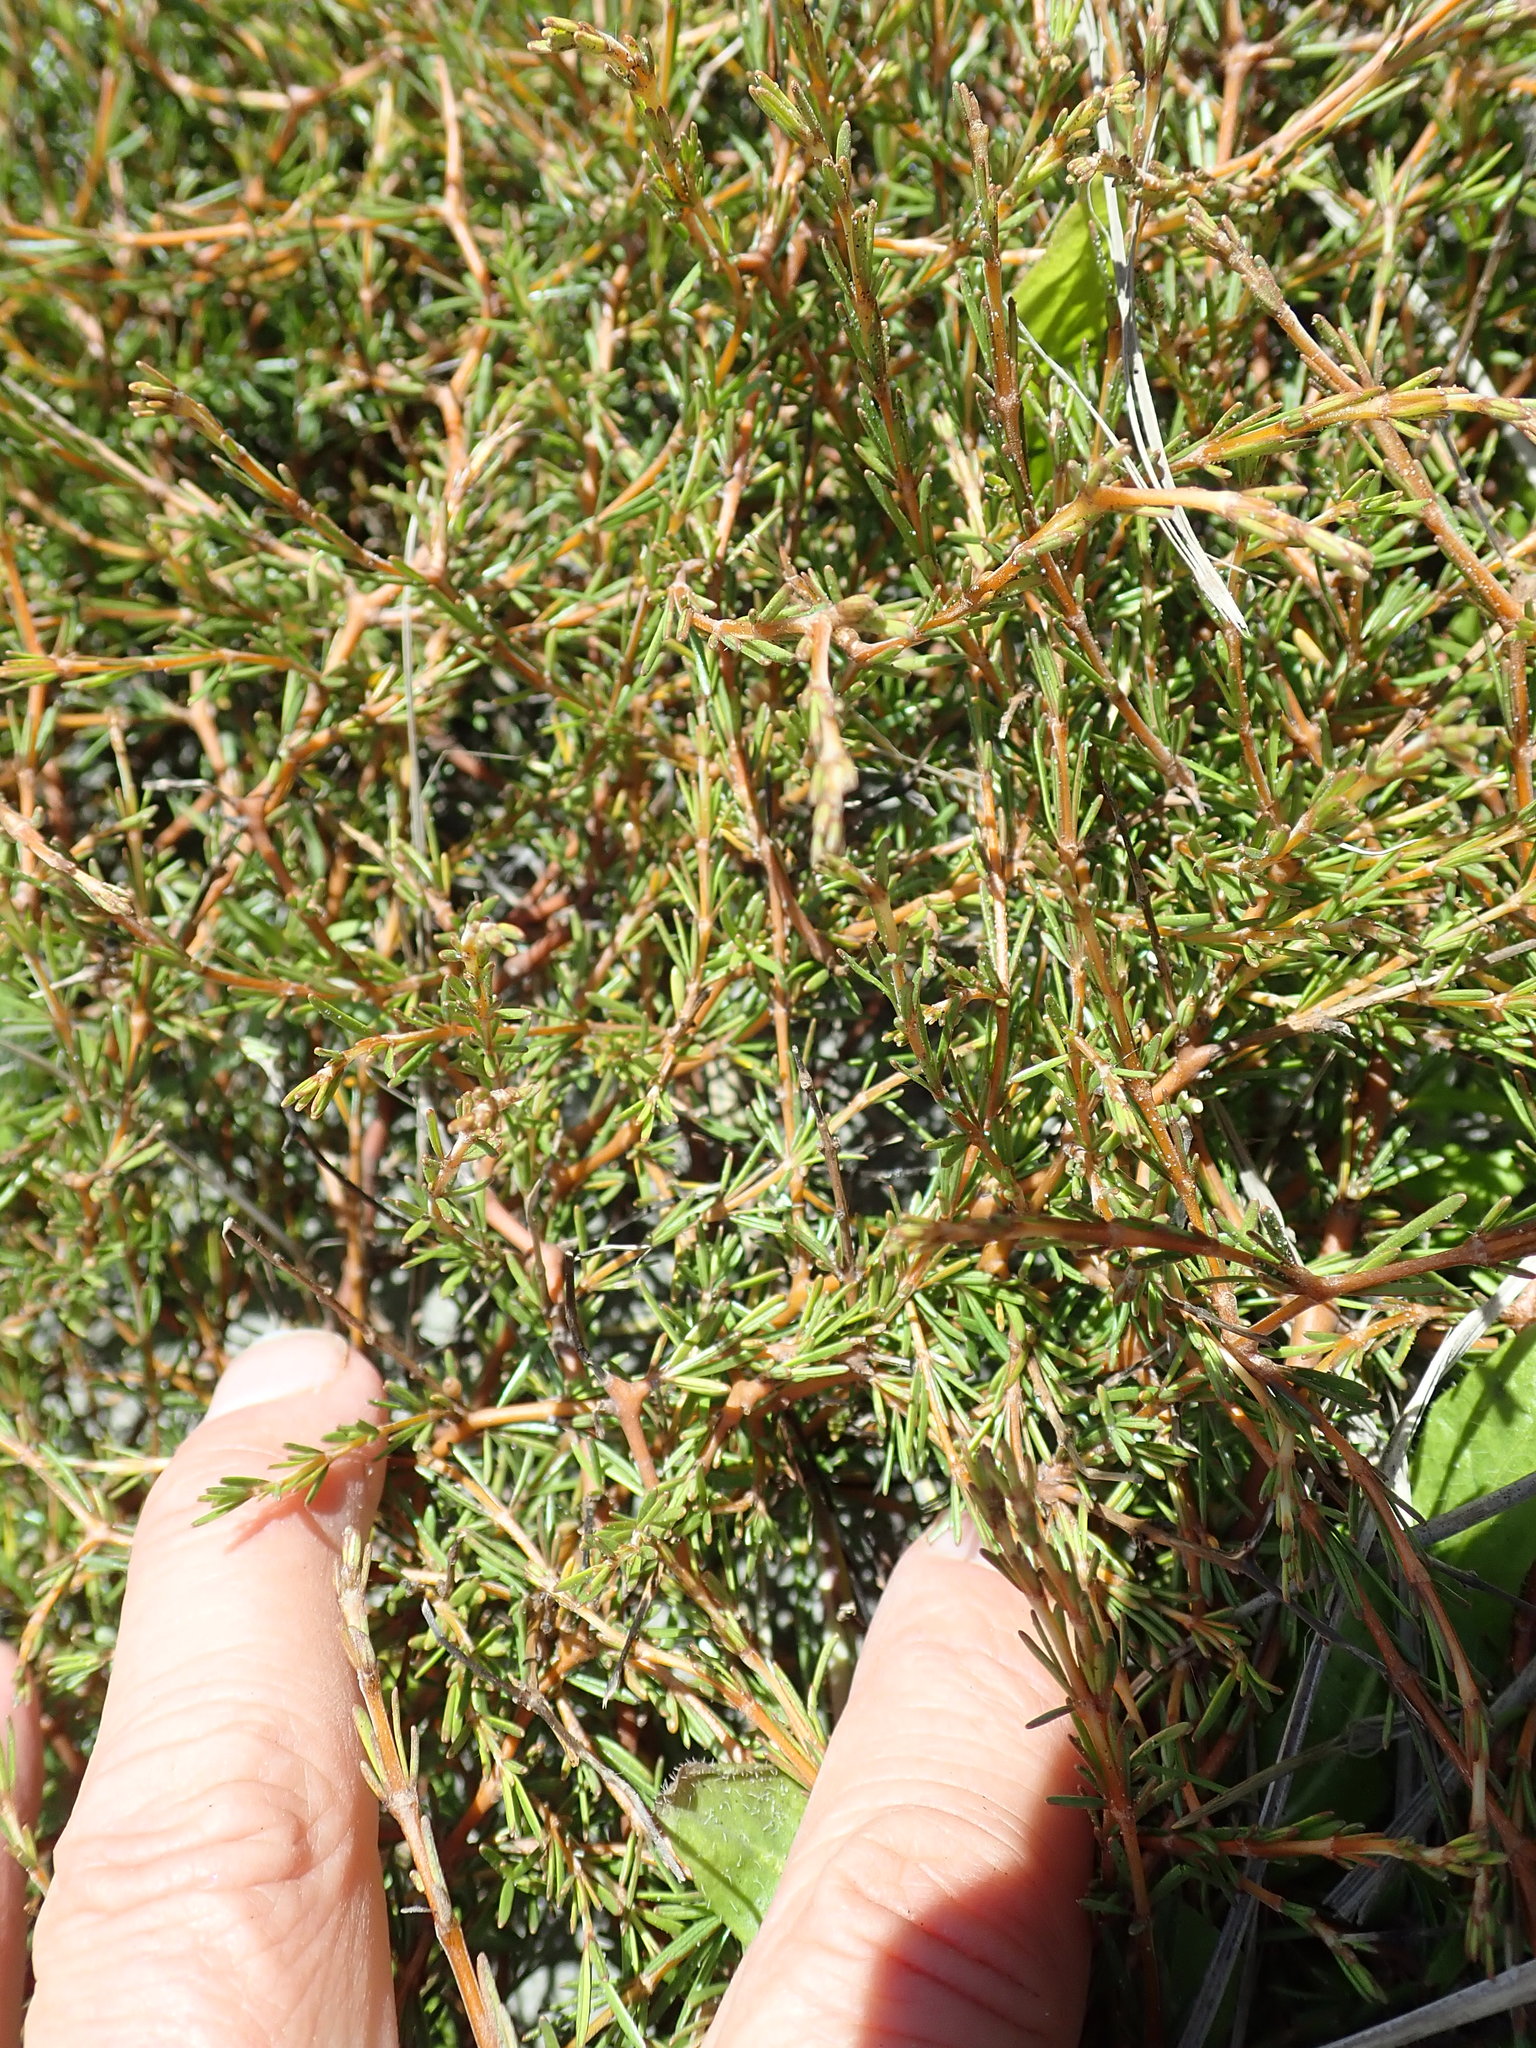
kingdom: Plantae
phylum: Tracheophyta
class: Magnoliopsida
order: Gentianales
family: Rubiaceae
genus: Coprosma
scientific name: Coprosma acerosa
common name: Sand coprosma
